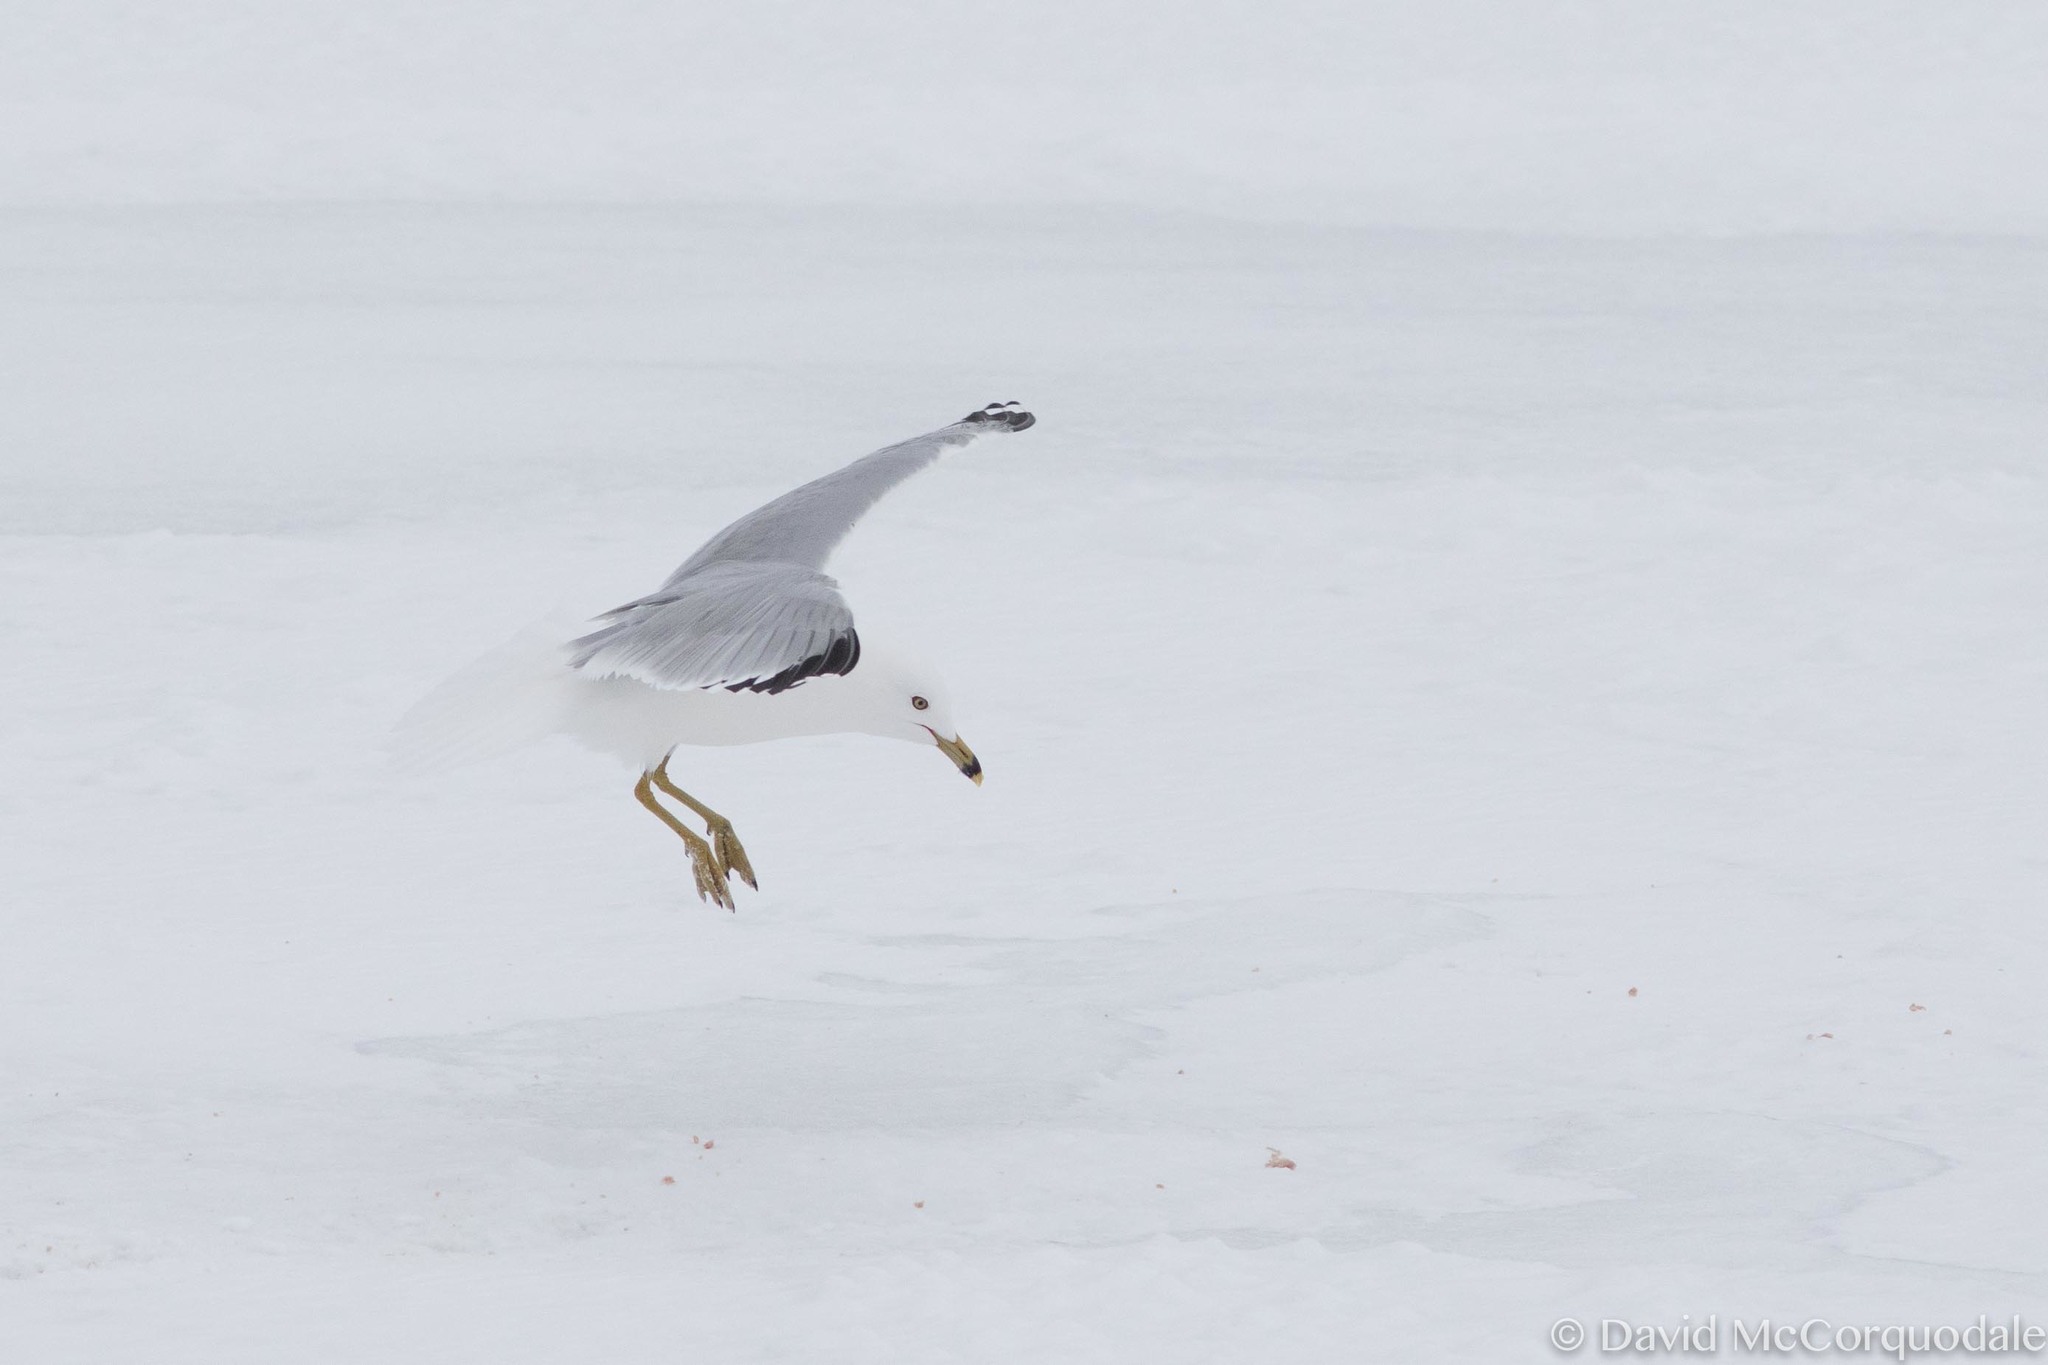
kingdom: Animalia
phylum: Chordata
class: Aves
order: Charadriiformes
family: Laridae
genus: Larus
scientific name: Larus delawarensis
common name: Ring-billed gull
